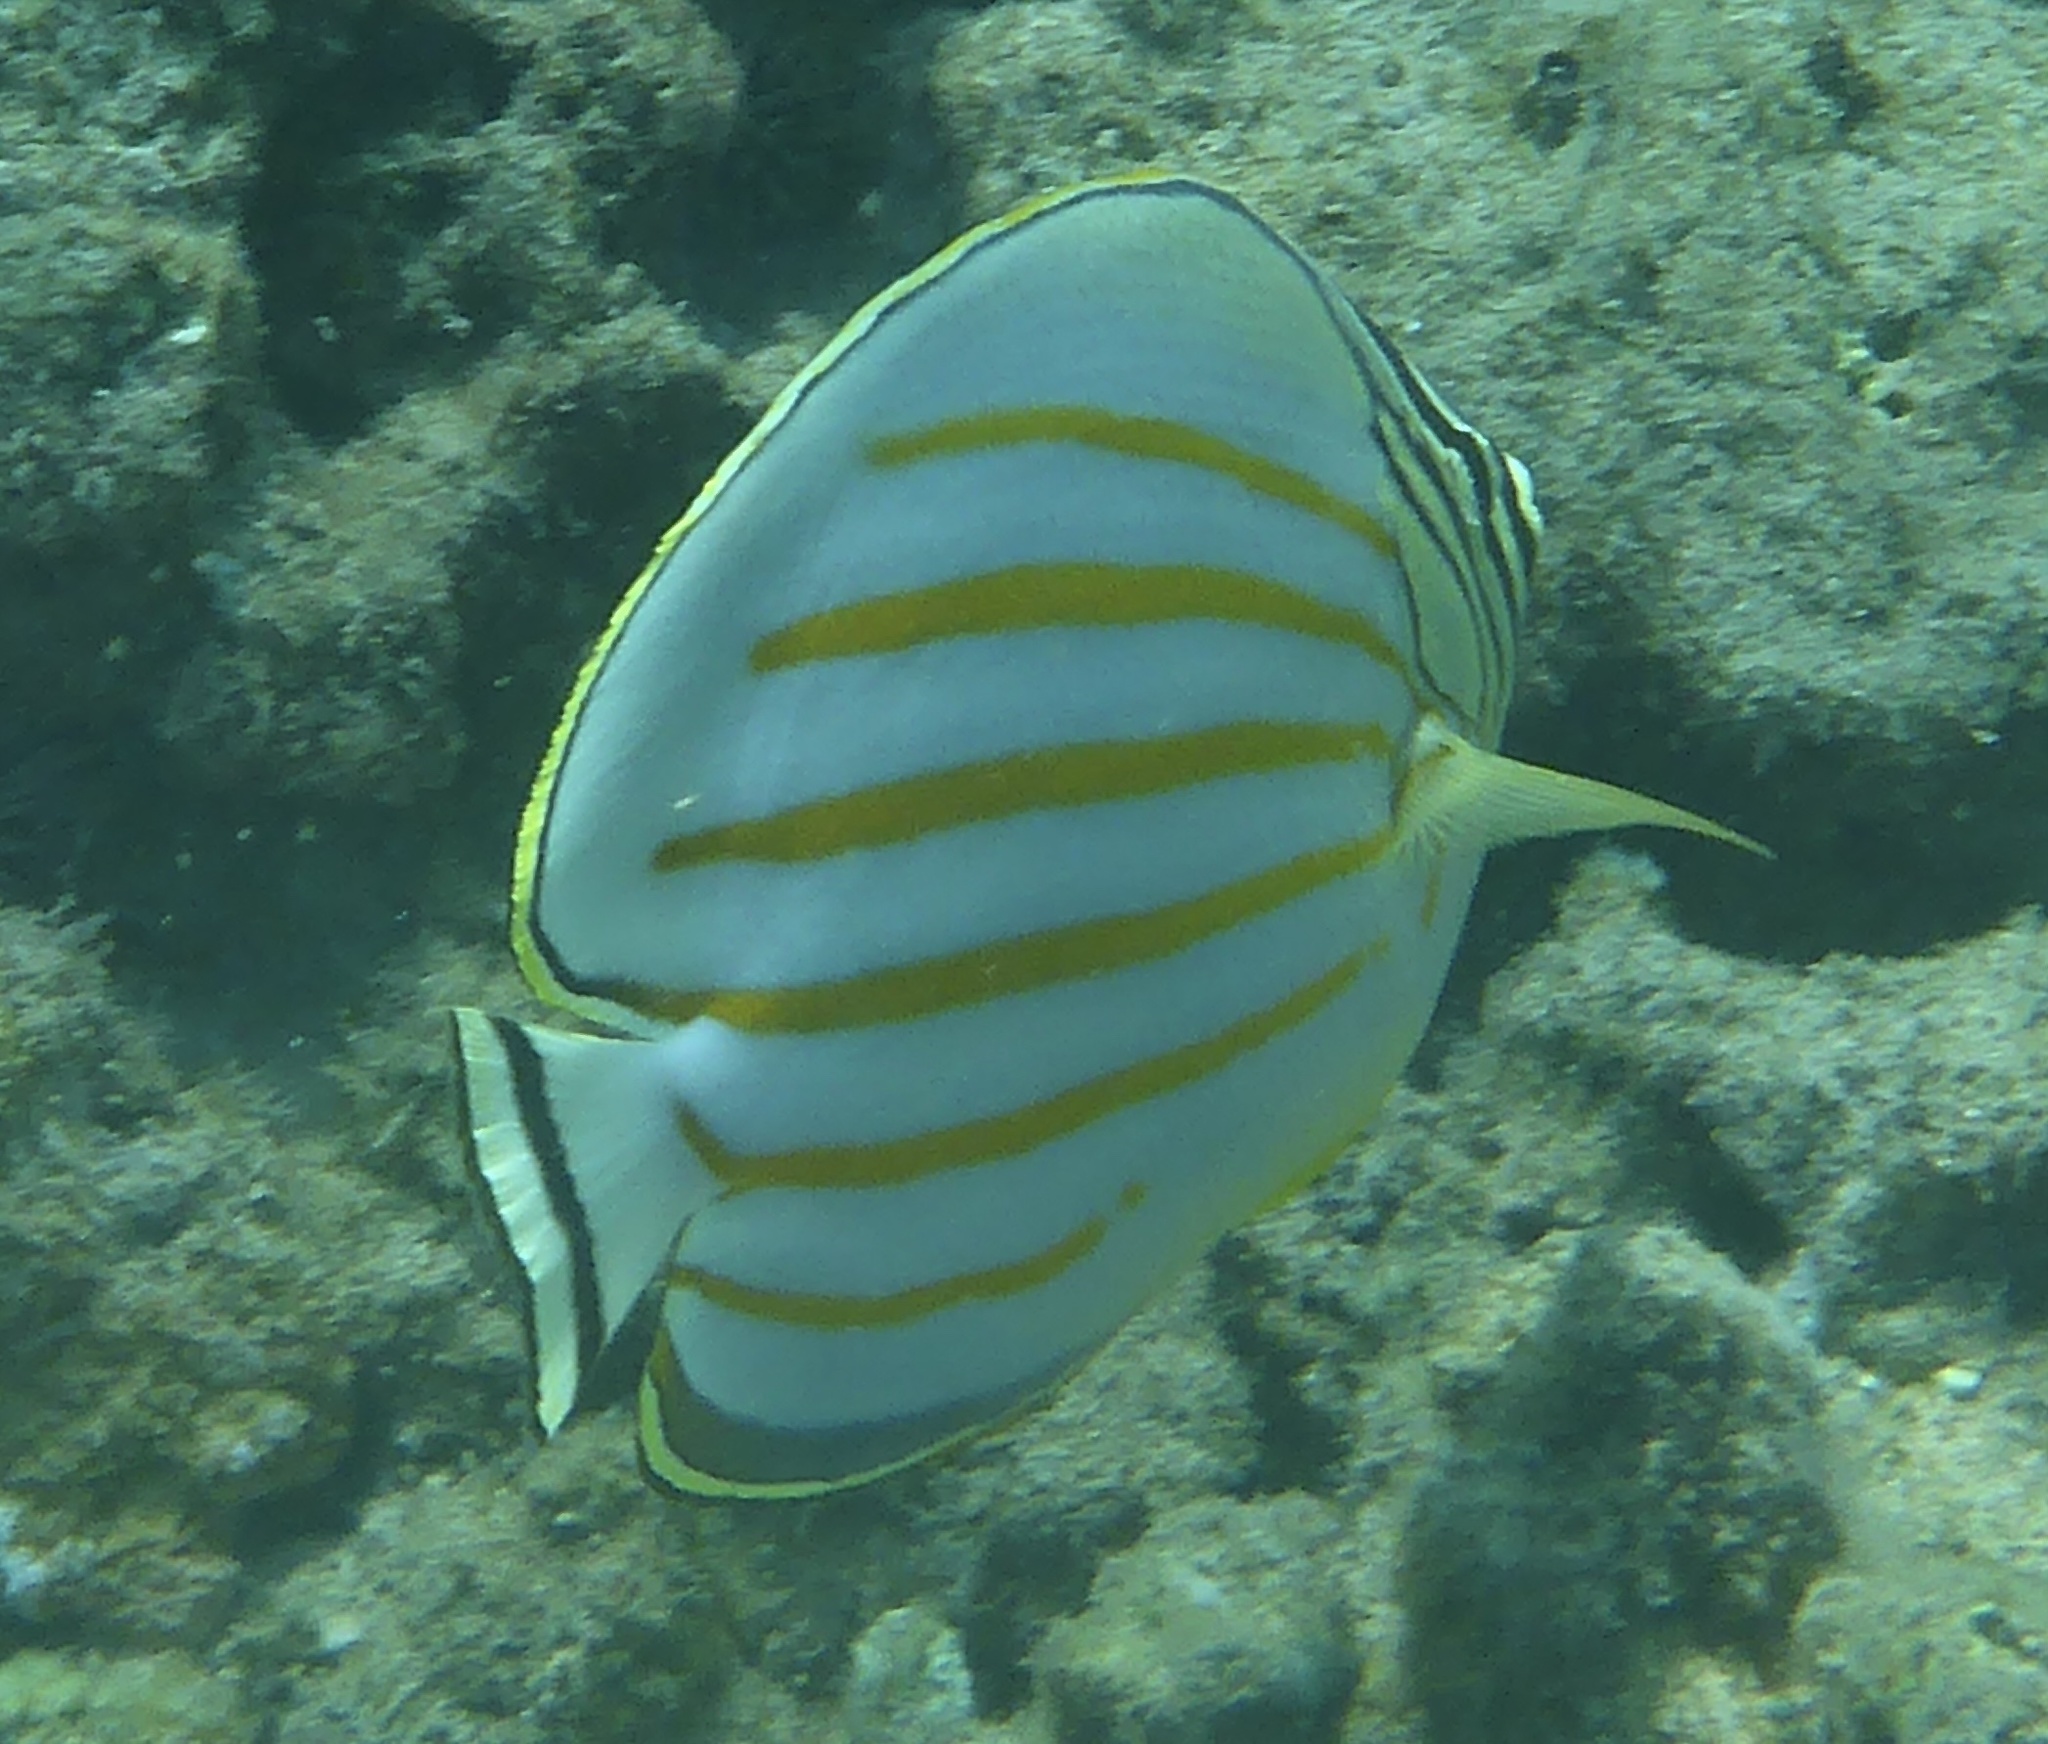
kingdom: Animalia
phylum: Chordata
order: Perciformes
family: Chaetodontidae
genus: Chaetodon
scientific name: Chaetodon ornatissimus
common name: Ornate butterflyfish
